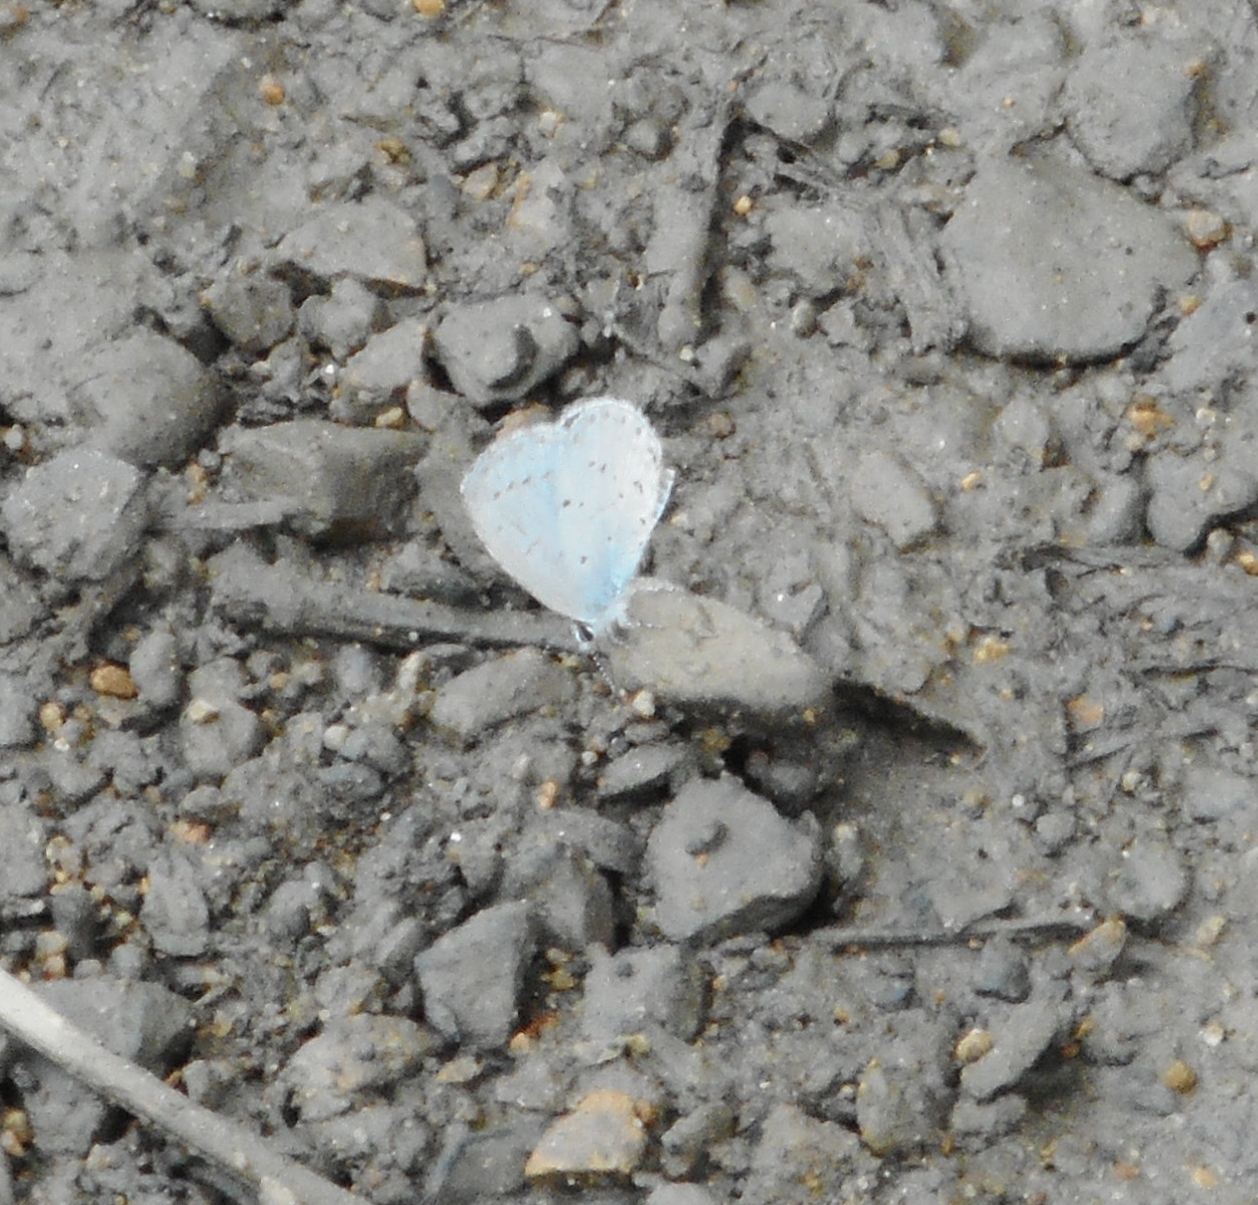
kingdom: Animalia
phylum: Arthropoda
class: Insecta
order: Lepidoptera
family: Lycaenidae
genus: Celastrina
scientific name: Celastrina argiolus
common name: Holly blue
